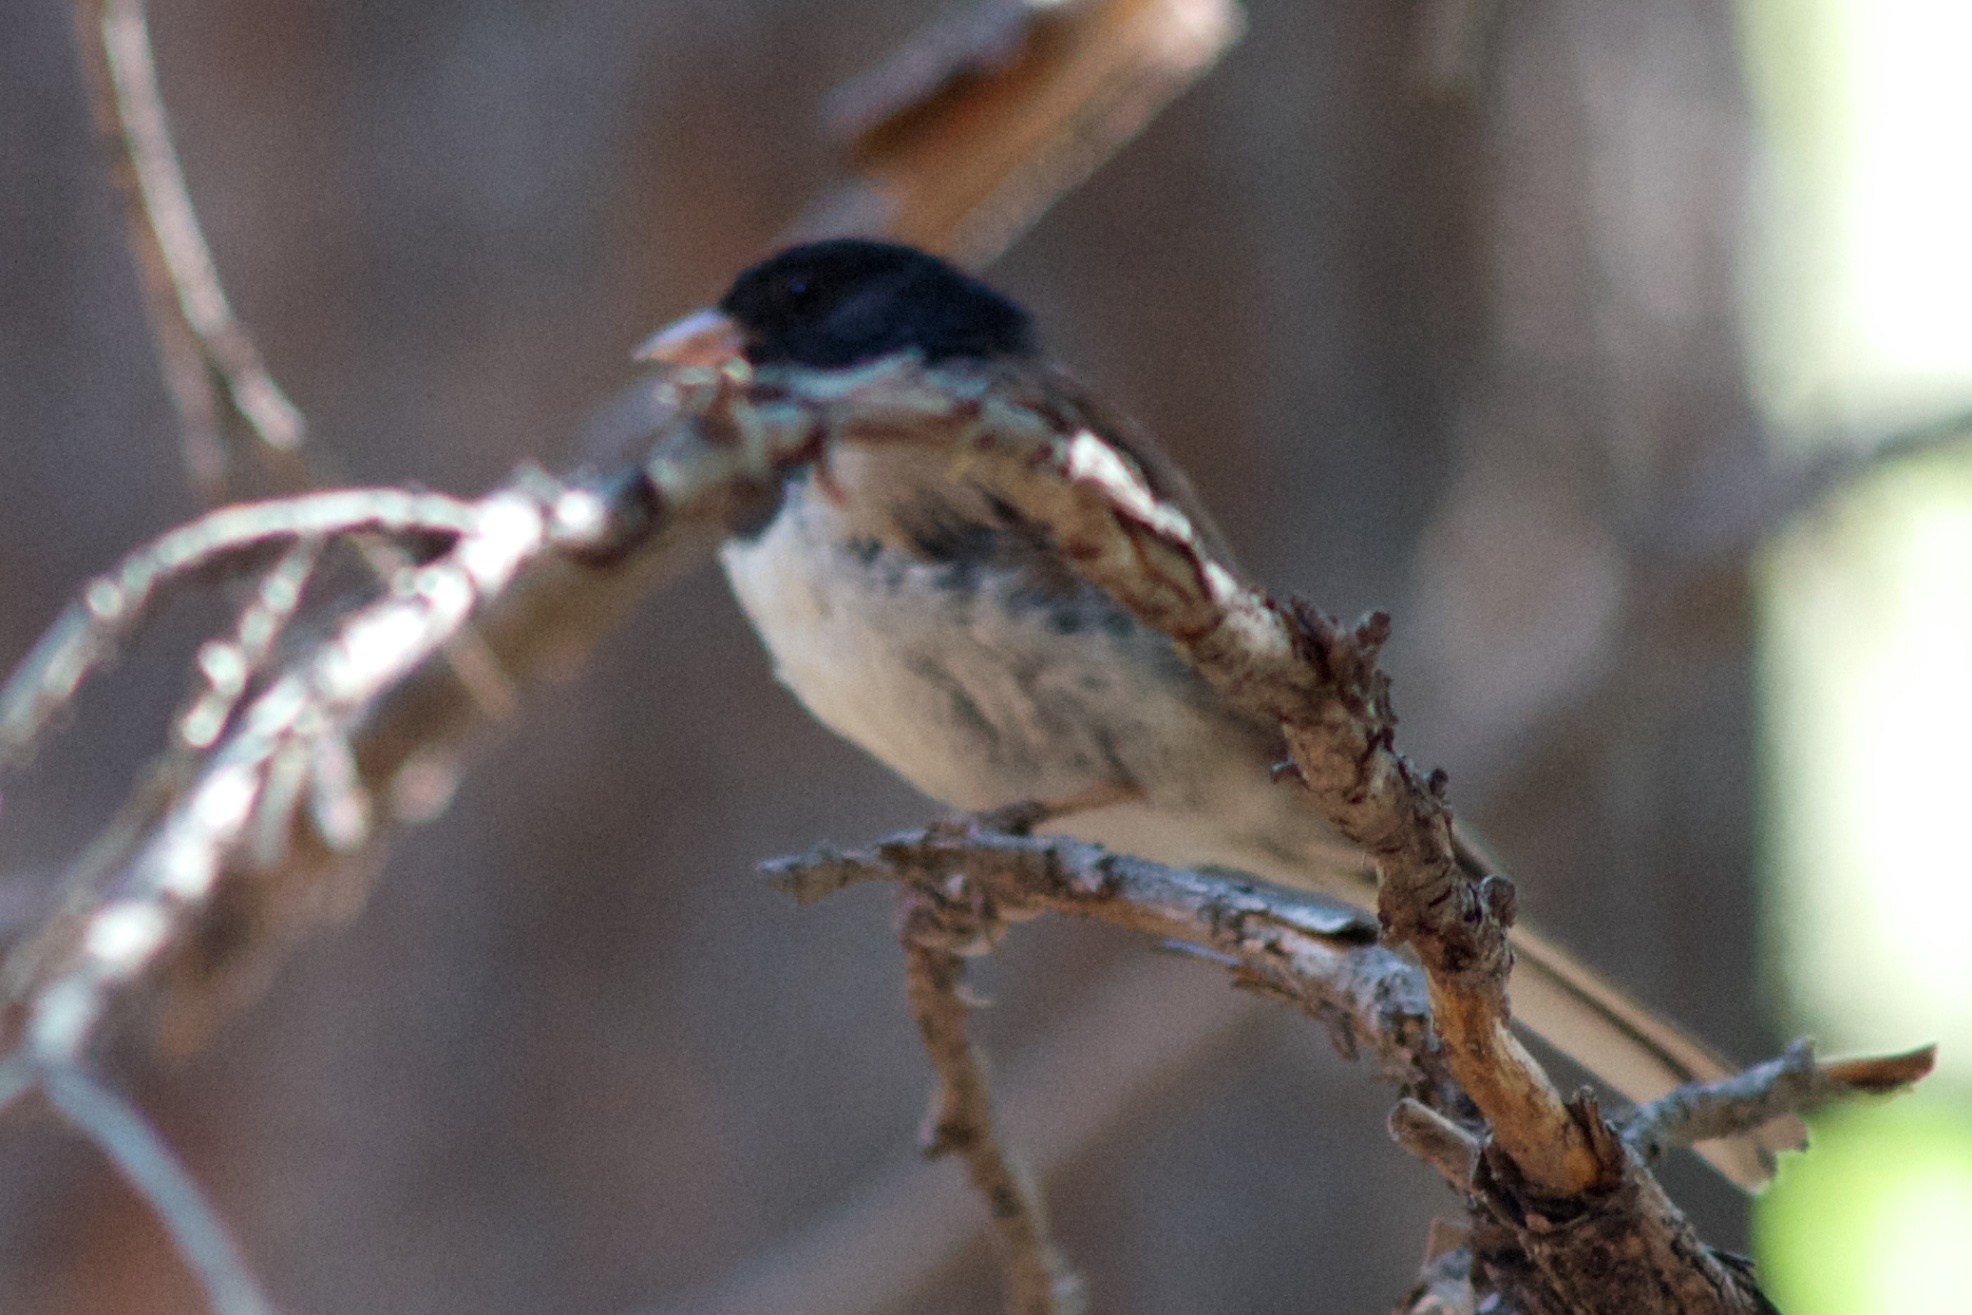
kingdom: Animalia
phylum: Chordata
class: Aves
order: Passeriformes
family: Passerellidae
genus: Junco
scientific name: Junco hyemalis
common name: Dark-eyed junco
